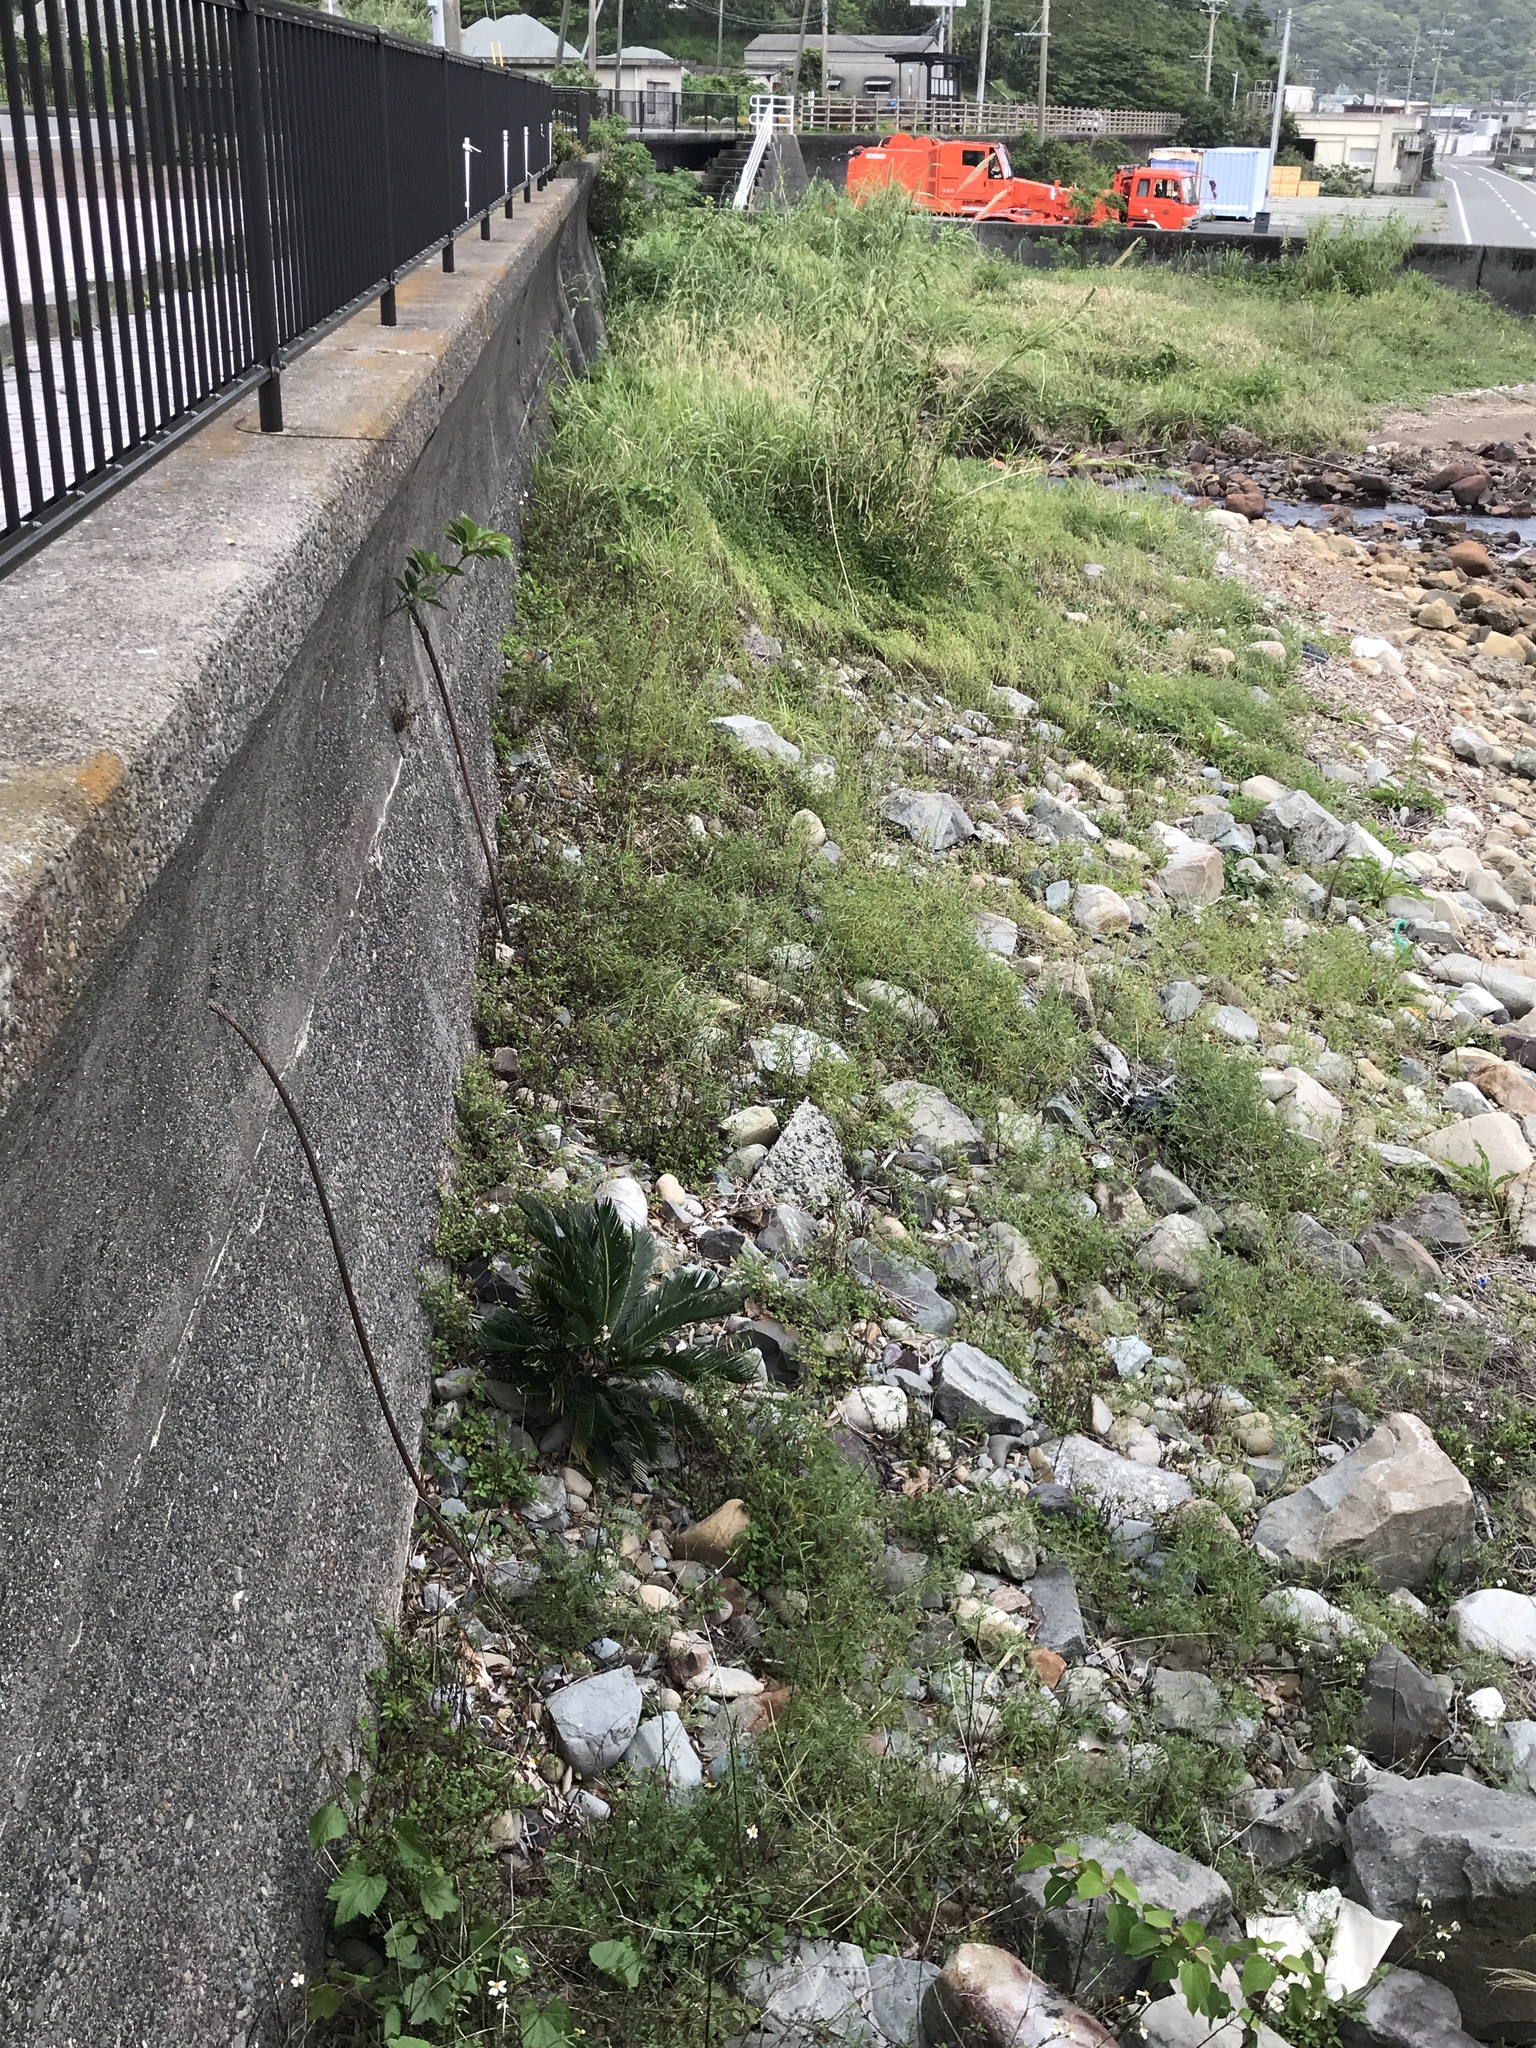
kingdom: Plantae
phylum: Tracheophyta
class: Cycadopsida
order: Cycadales
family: Cycadaceae
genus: Cycas
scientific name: Cycas revoluta
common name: Sago palm
